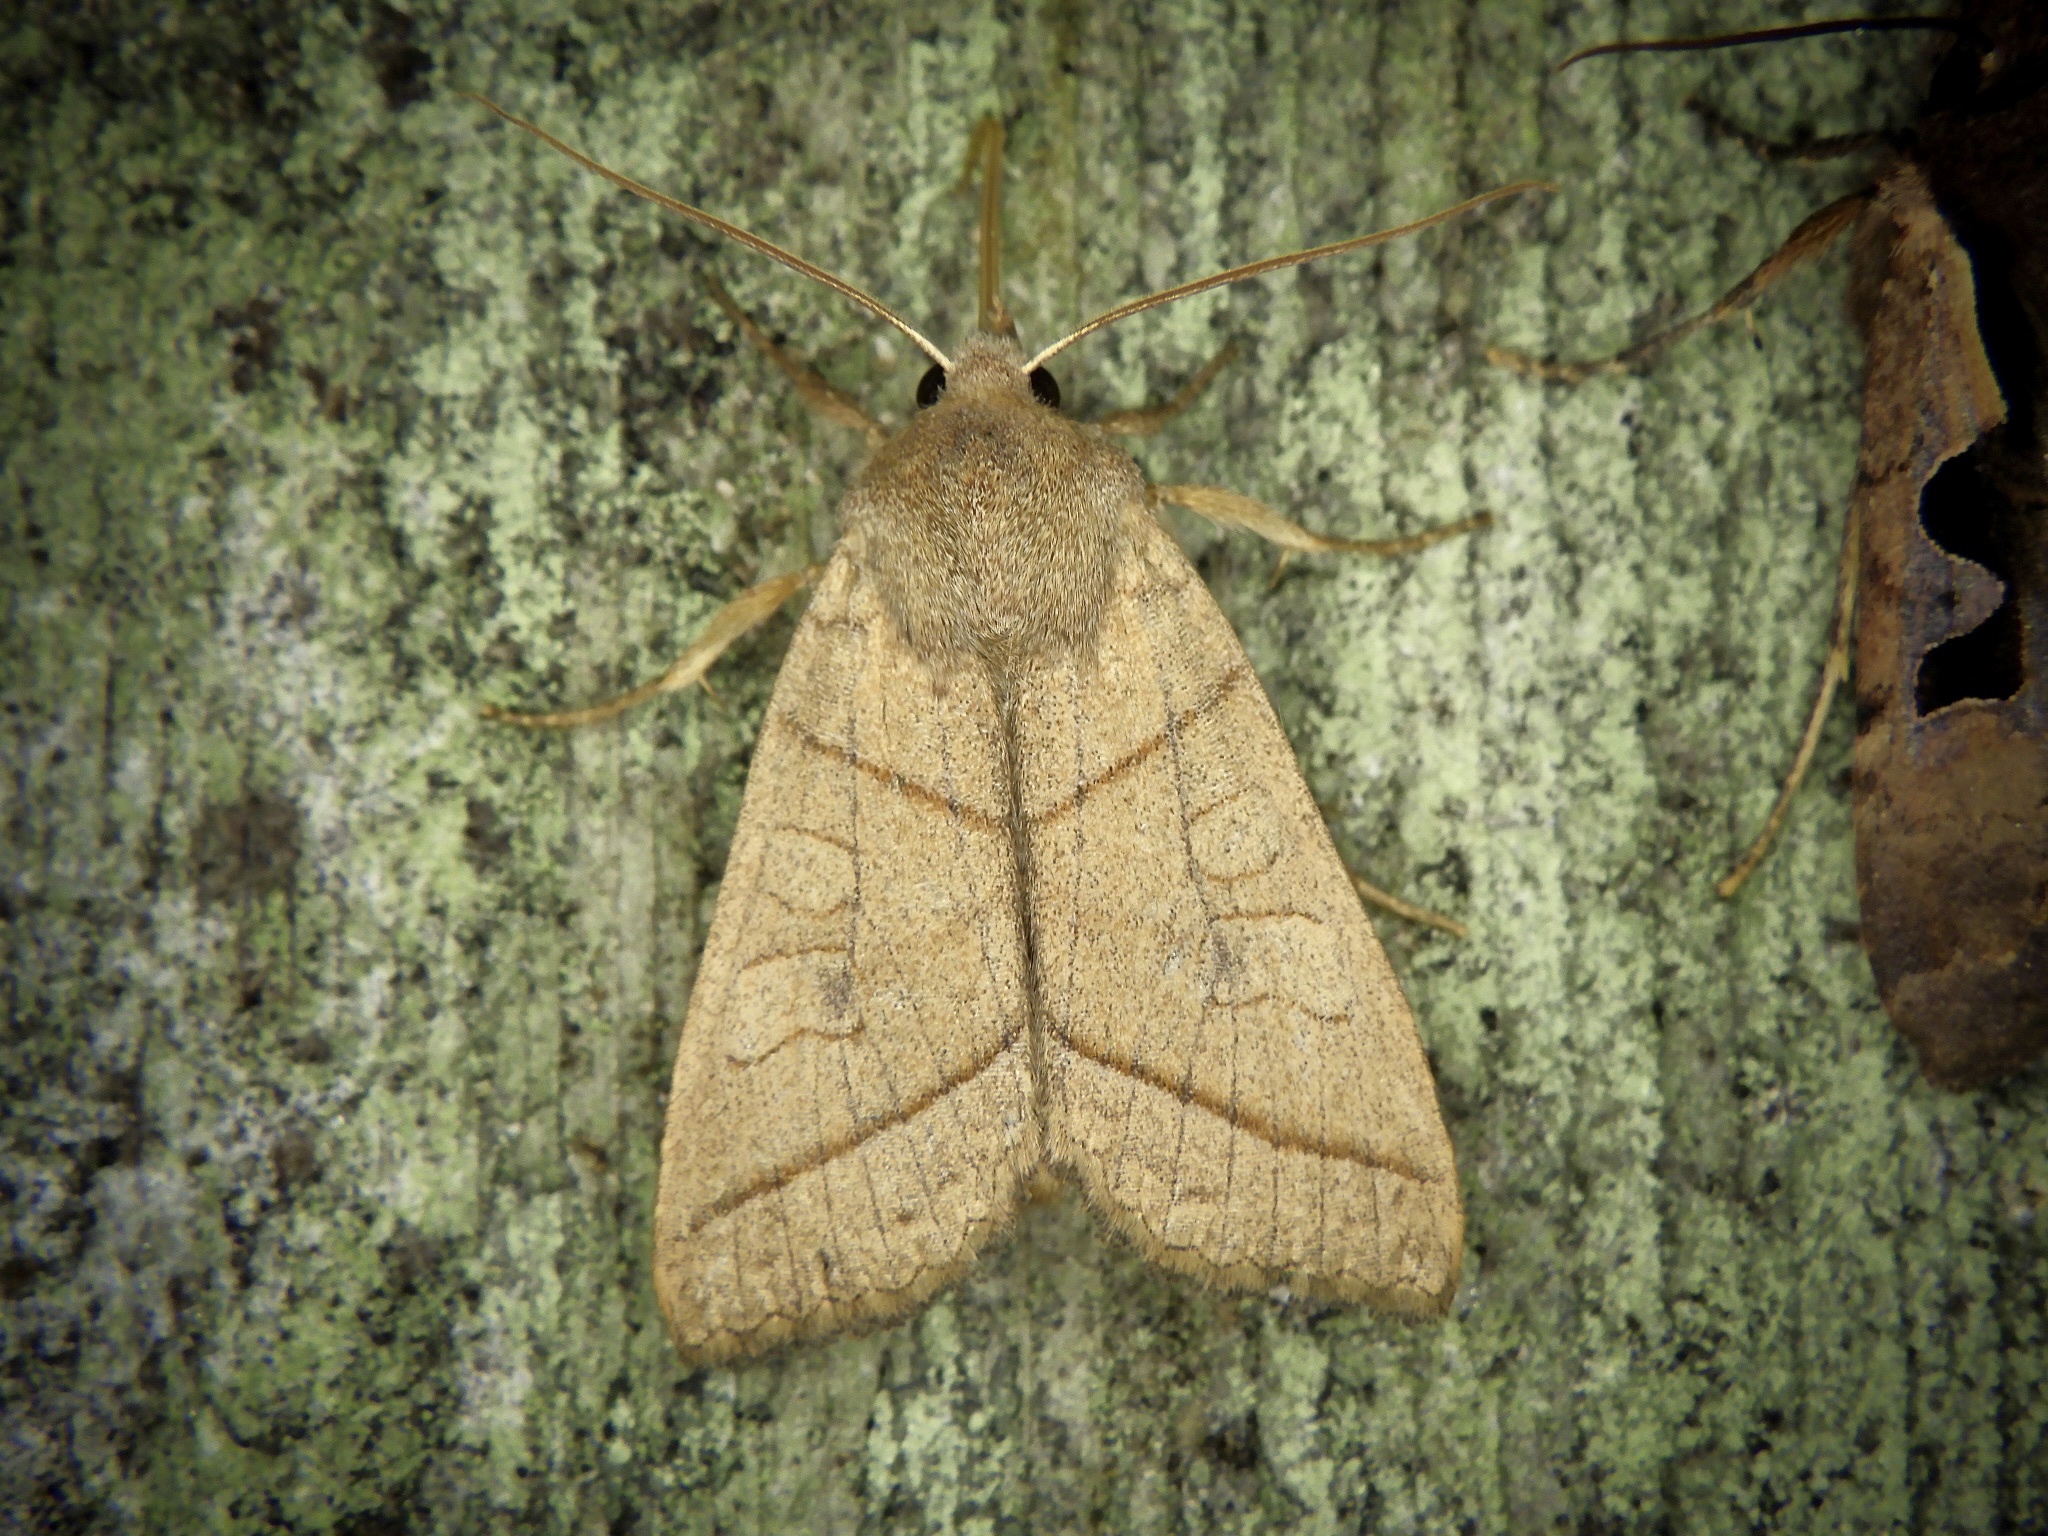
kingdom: Animalia
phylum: Arthropoda
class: Insecta
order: Lepidoptera
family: Noctuidae
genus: Telorta
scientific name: Telorta divergens
